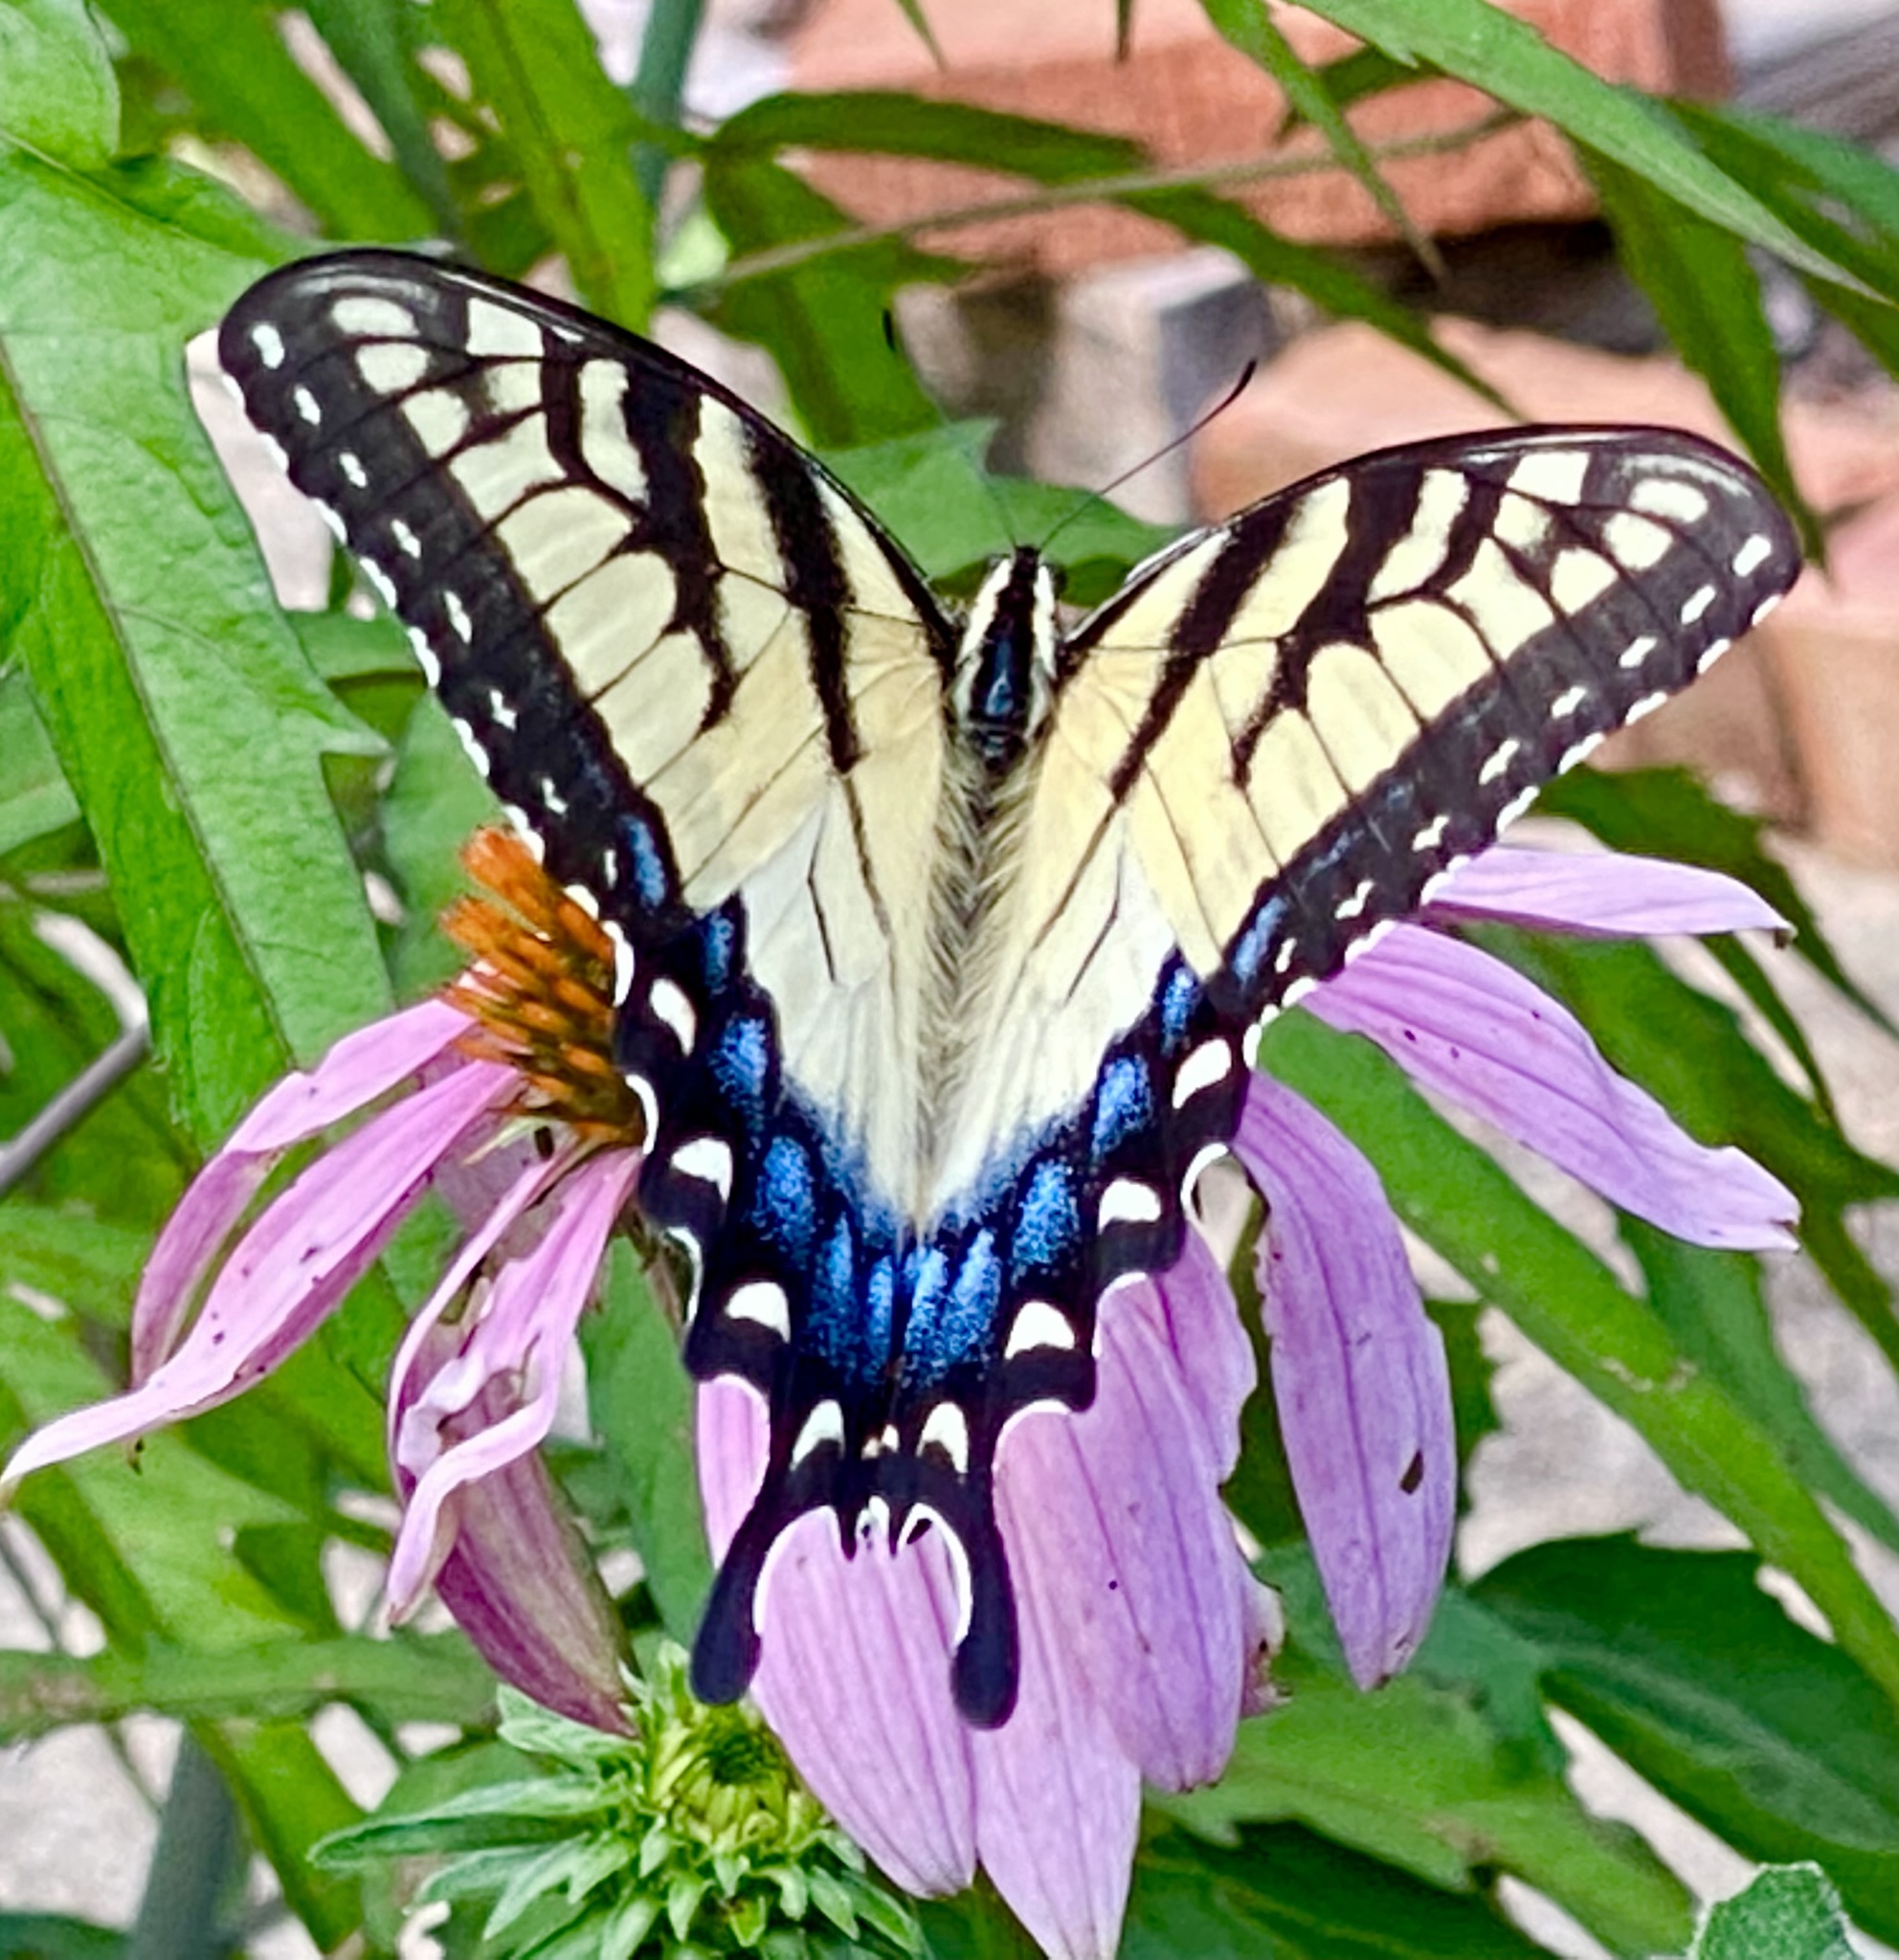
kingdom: Animalia
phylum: Arthropoda
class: Insecta
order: Lepidoptera
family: Papilionidae
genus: Papilio
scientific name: Papilio glaucus
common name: Tiger swallowtail
